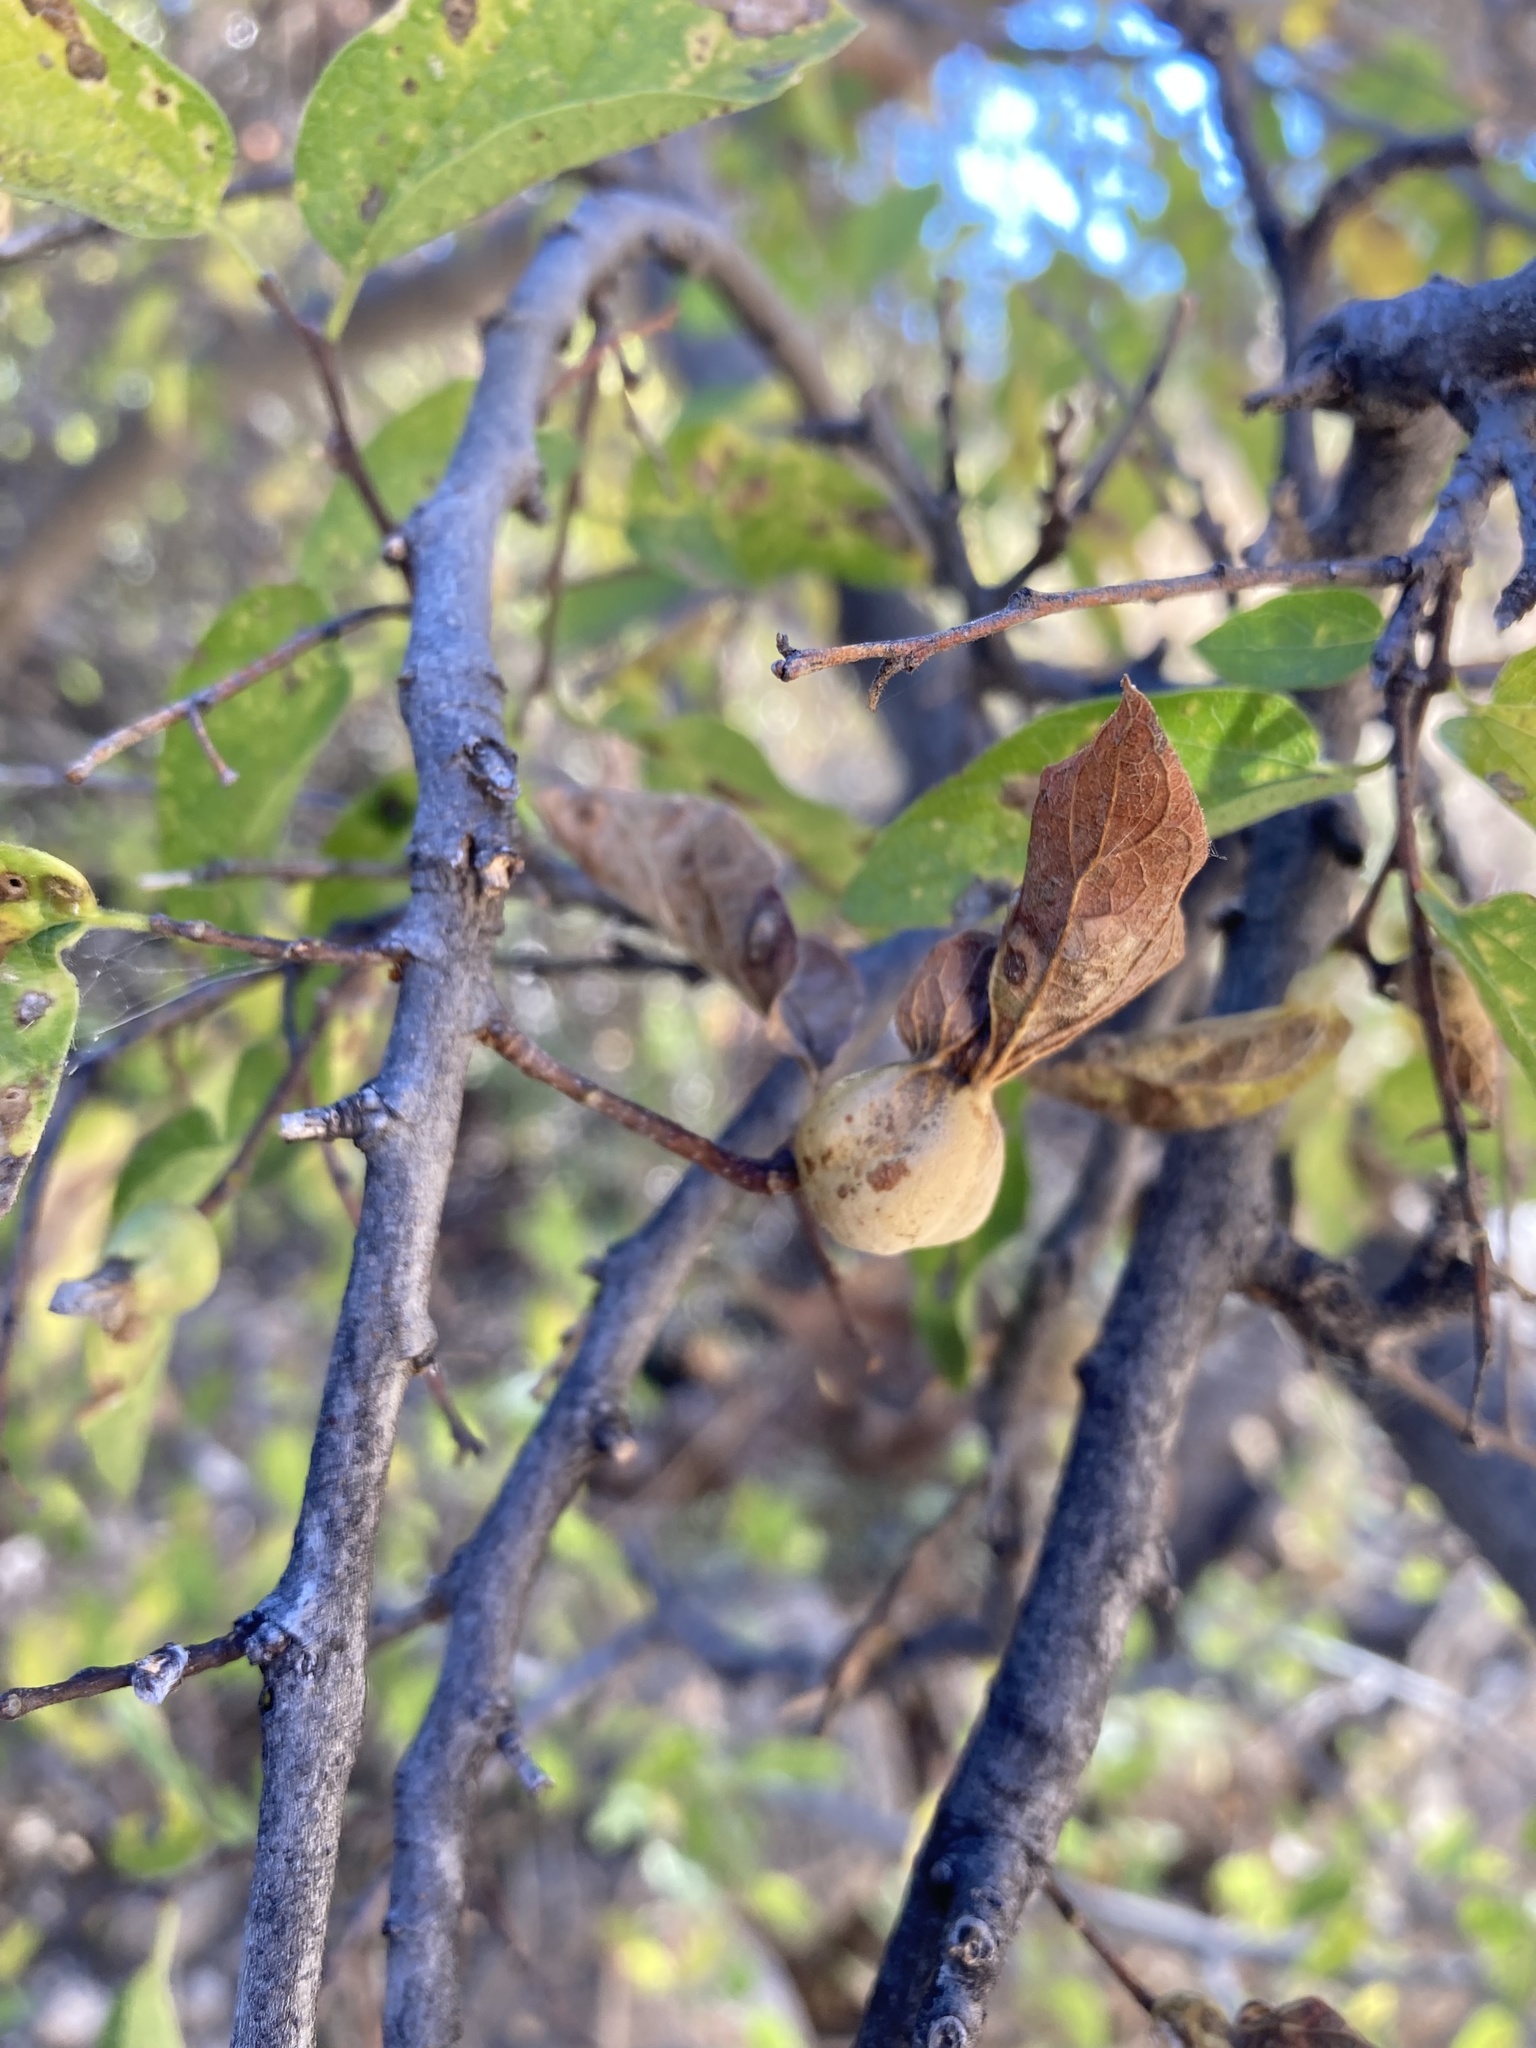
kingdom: Plantae
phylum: Tracheophyta
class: Magnoliopsida
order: Rosales
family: Cannabaceae
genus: Celtis
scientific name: Celtis reticulata
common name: Netleaf hackberry
